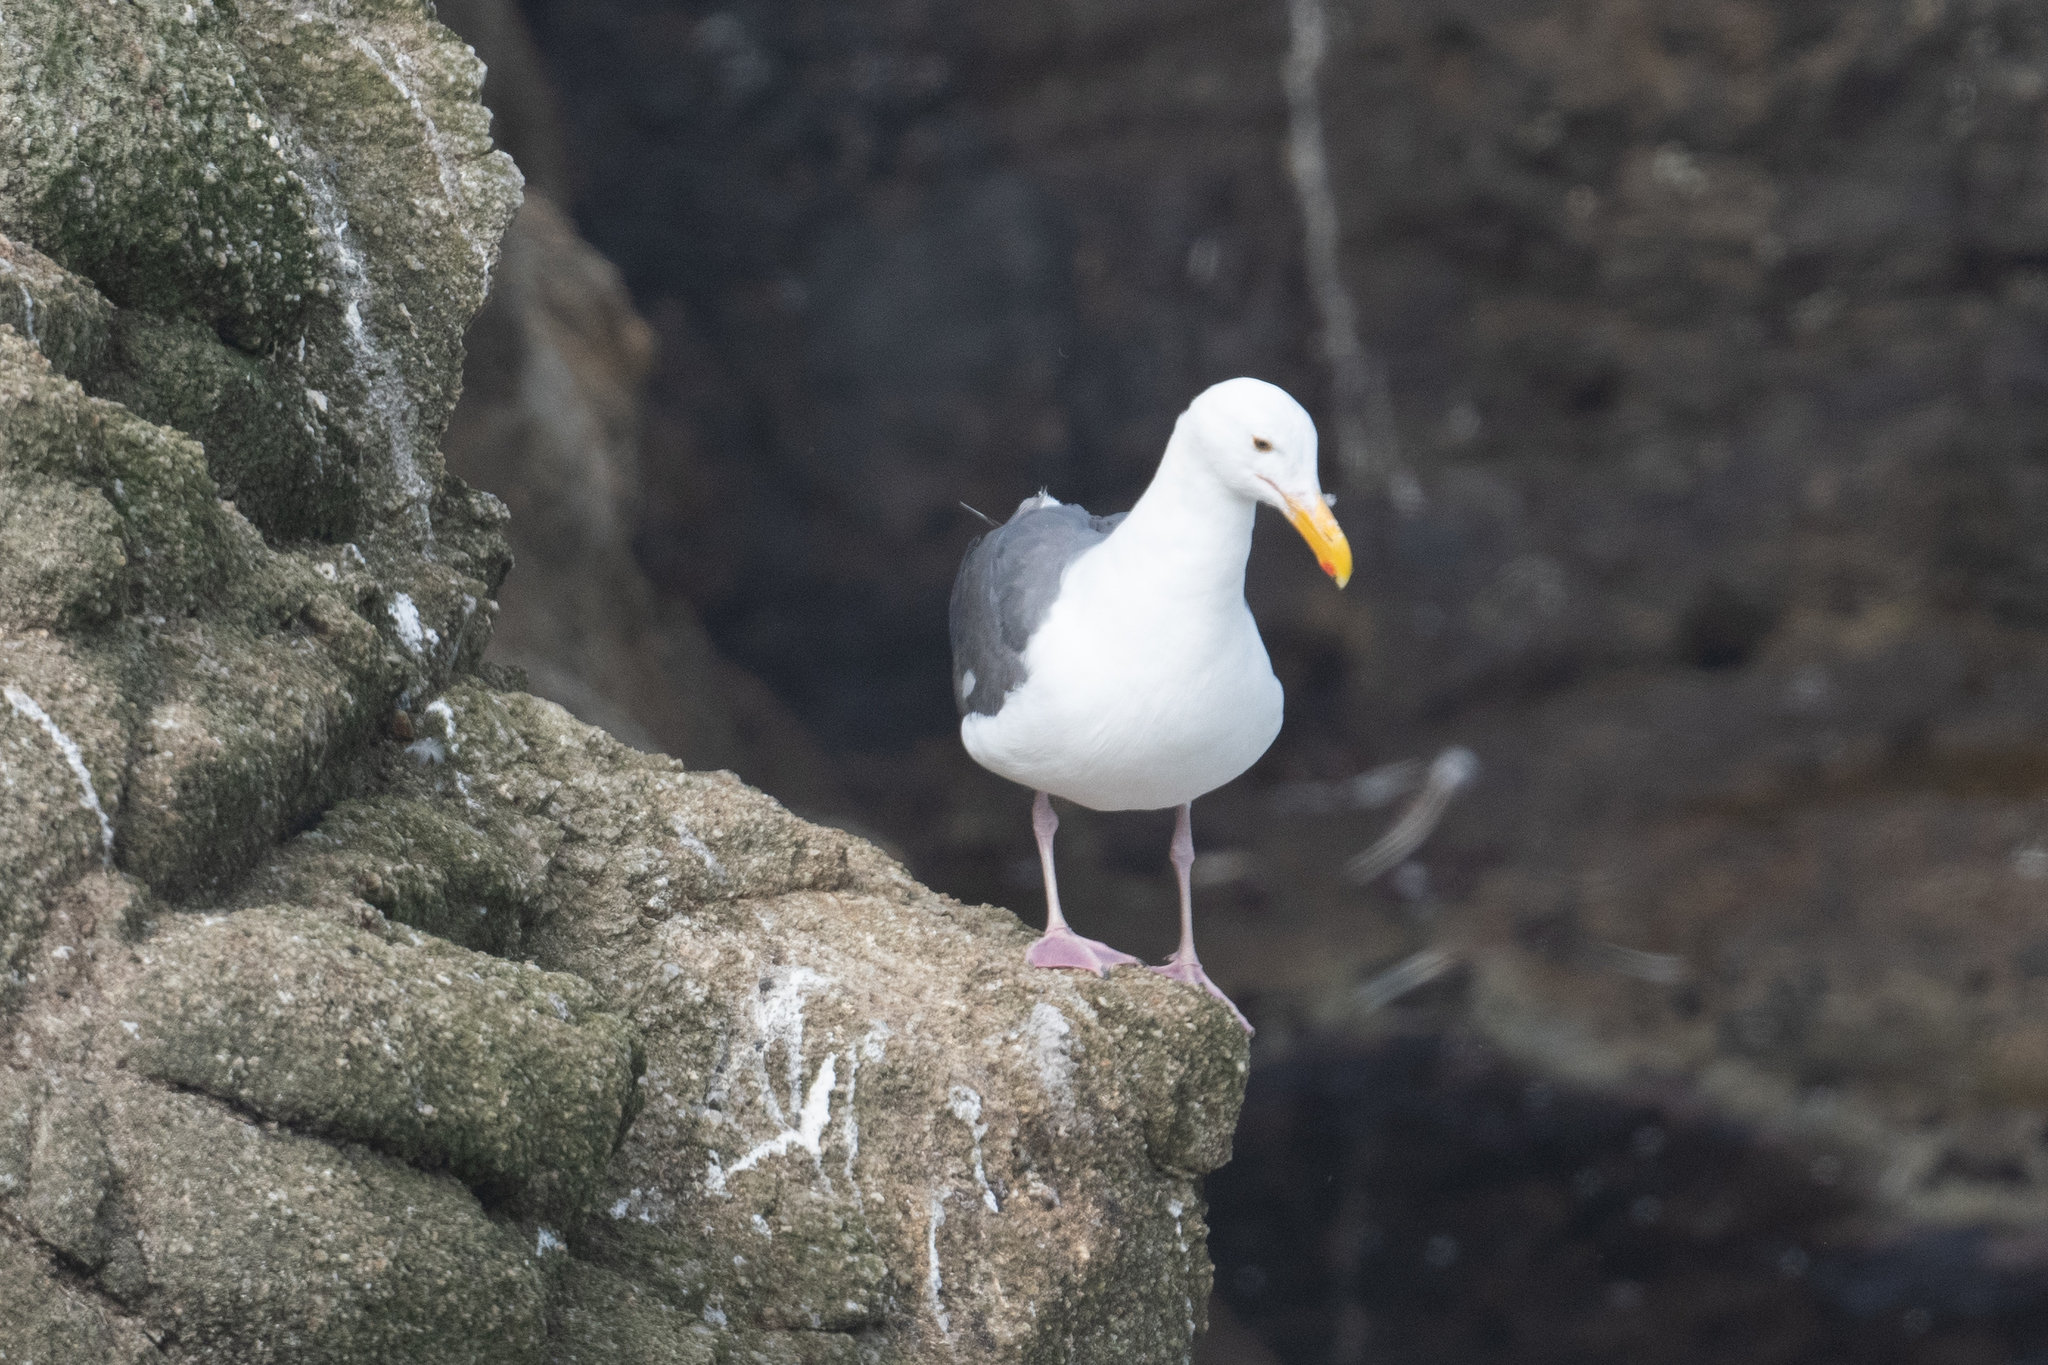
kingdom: Animalia
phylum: Chordata
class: Aves
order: Charadriiformes
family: Laridae
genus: Larus
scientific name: Larus occidentalis
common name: Western gull
